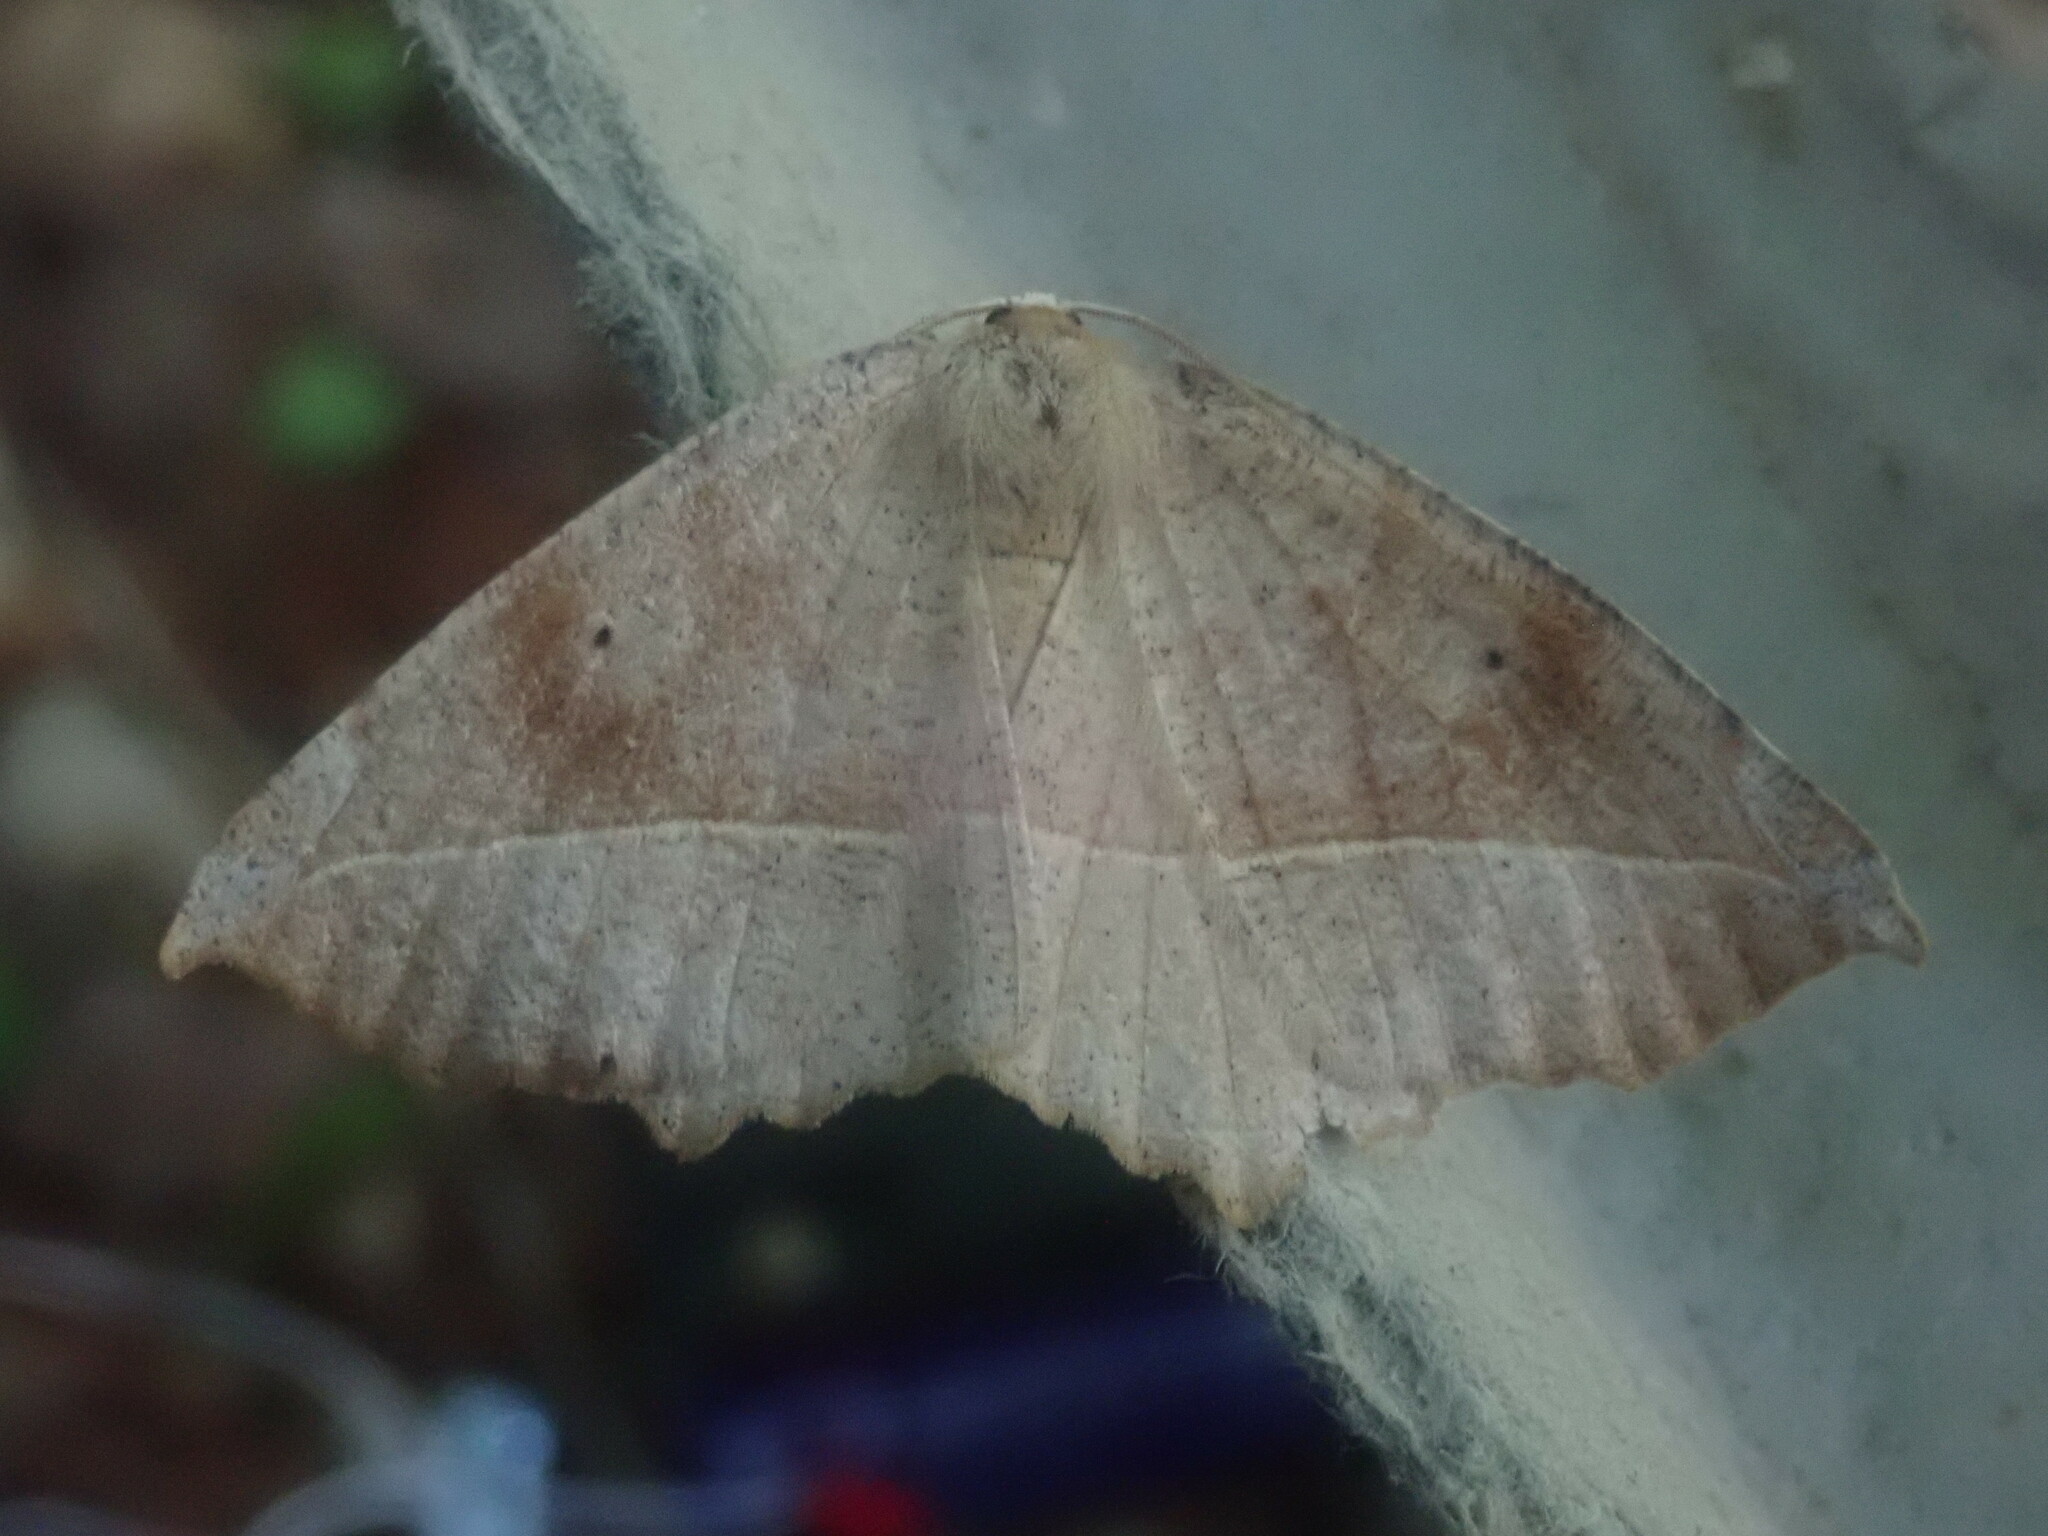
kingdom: Animalia
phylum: Arthropoda
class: Insecta
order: Lepidoptera
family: Geometridae
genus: Eutrapela
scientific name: Eutrapela clemataria
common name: Curved-toothed geometer
